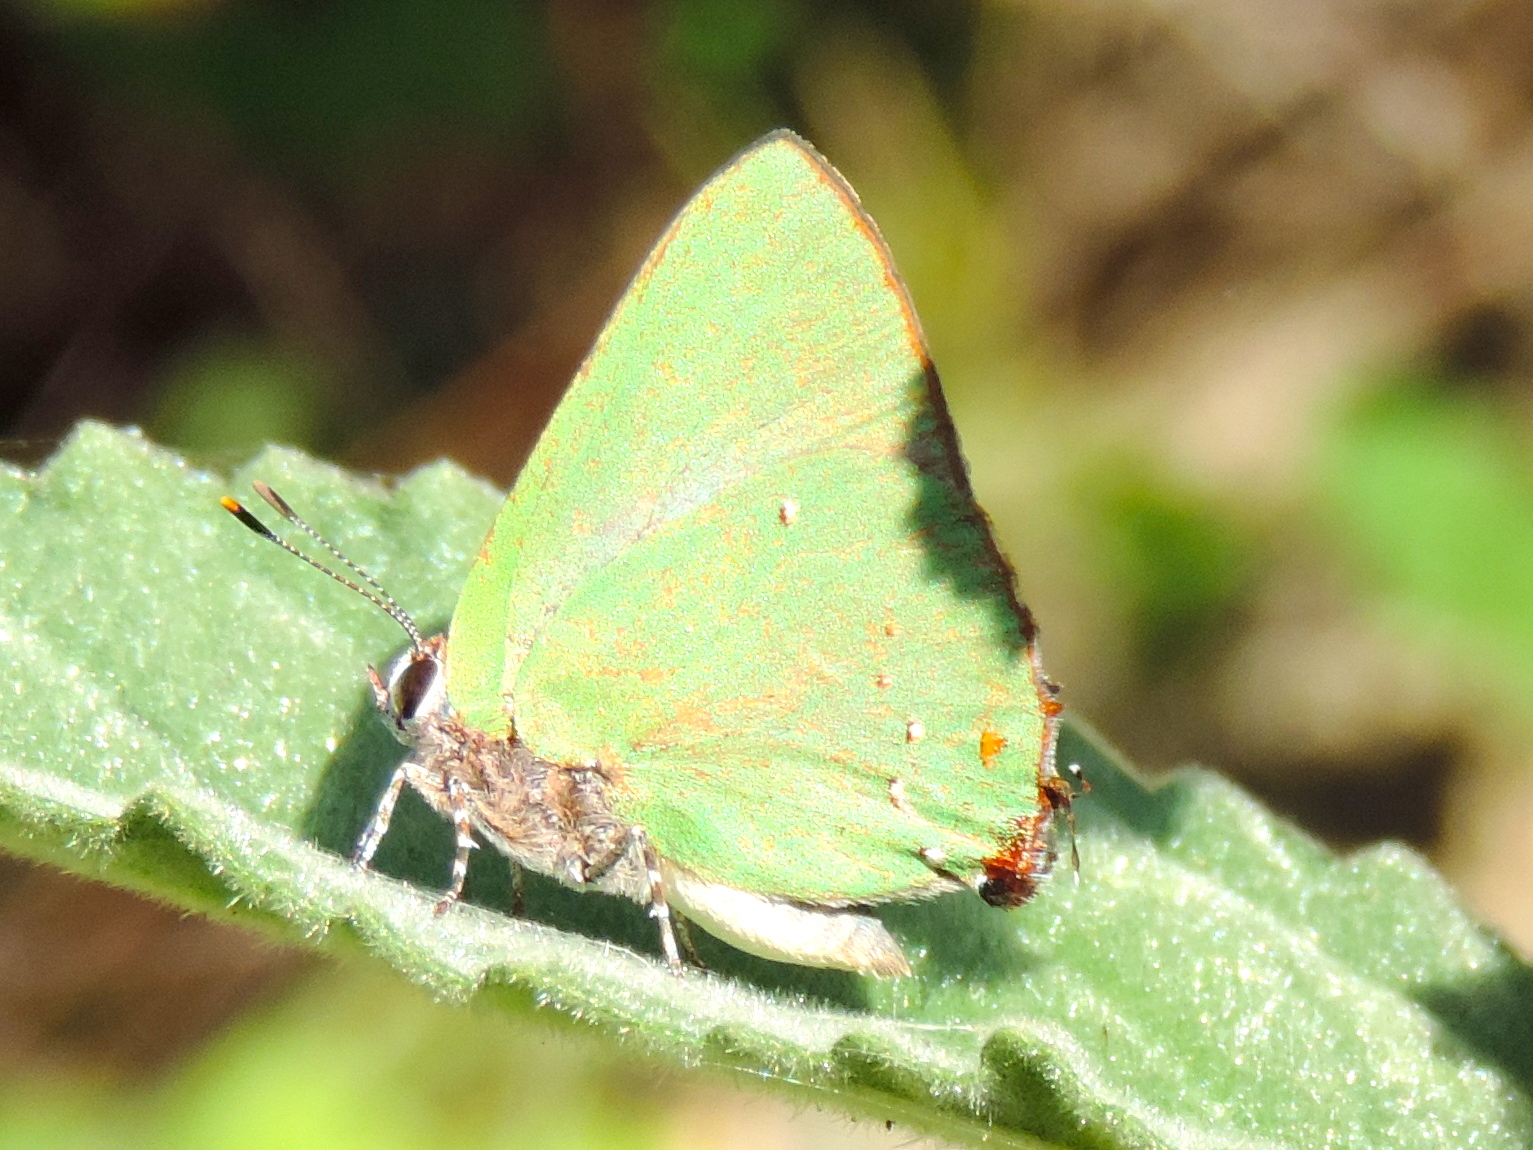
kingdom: Animalia
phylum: Arthropoda
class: Insecta
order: Lepidoptera
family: Lycaenidae
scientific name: Lycaenidae
